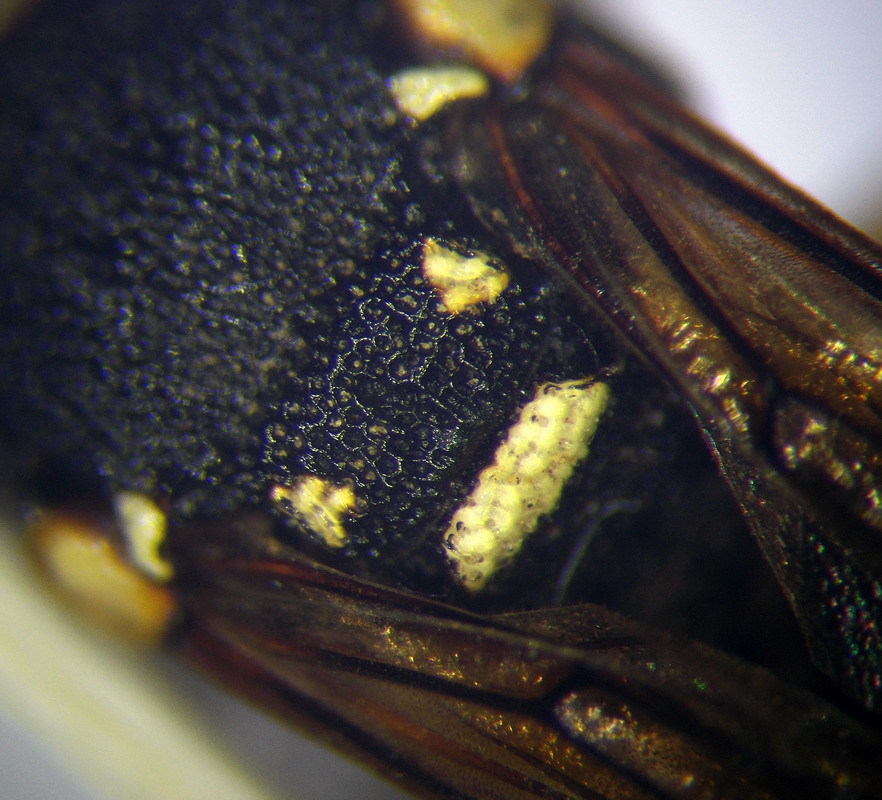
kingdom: Animalia
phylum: Arthropoda
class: Insecta
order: Hymenoptera
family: Eumenidae
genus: Parodontodynerus
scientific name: Parodontodynerus ephippium
